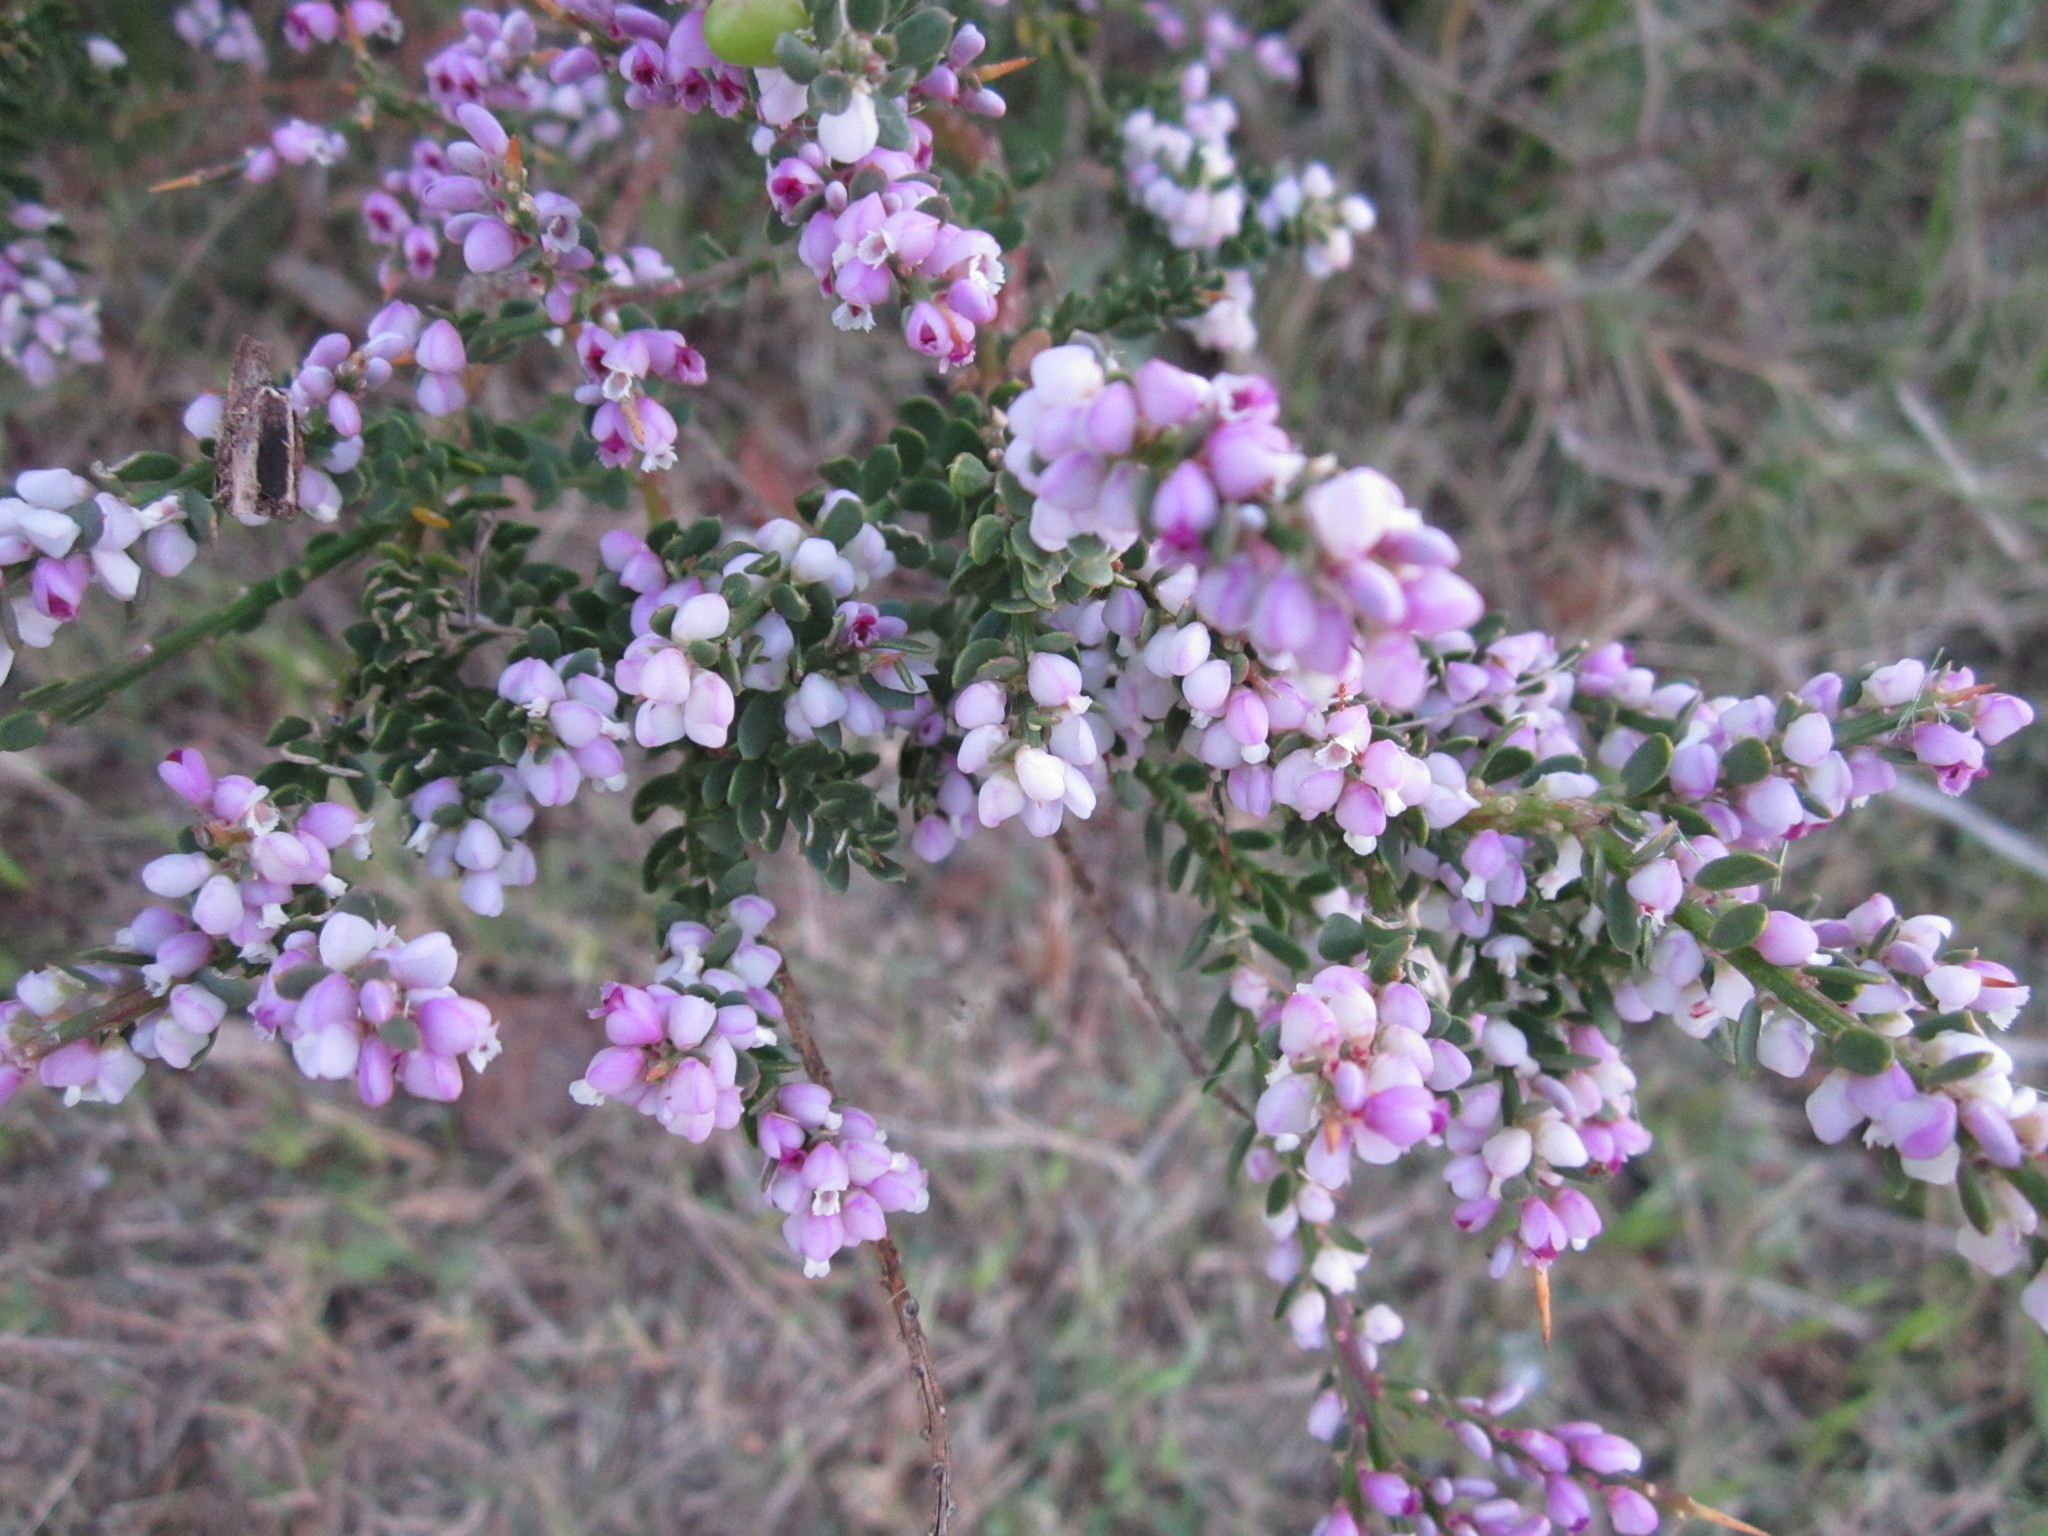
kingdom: Plantae
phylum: Tracheophyta
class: Magnoliopsida
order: Fabales
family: Polygalaceae
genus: Muraltia
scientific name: Muraltia spinosa
